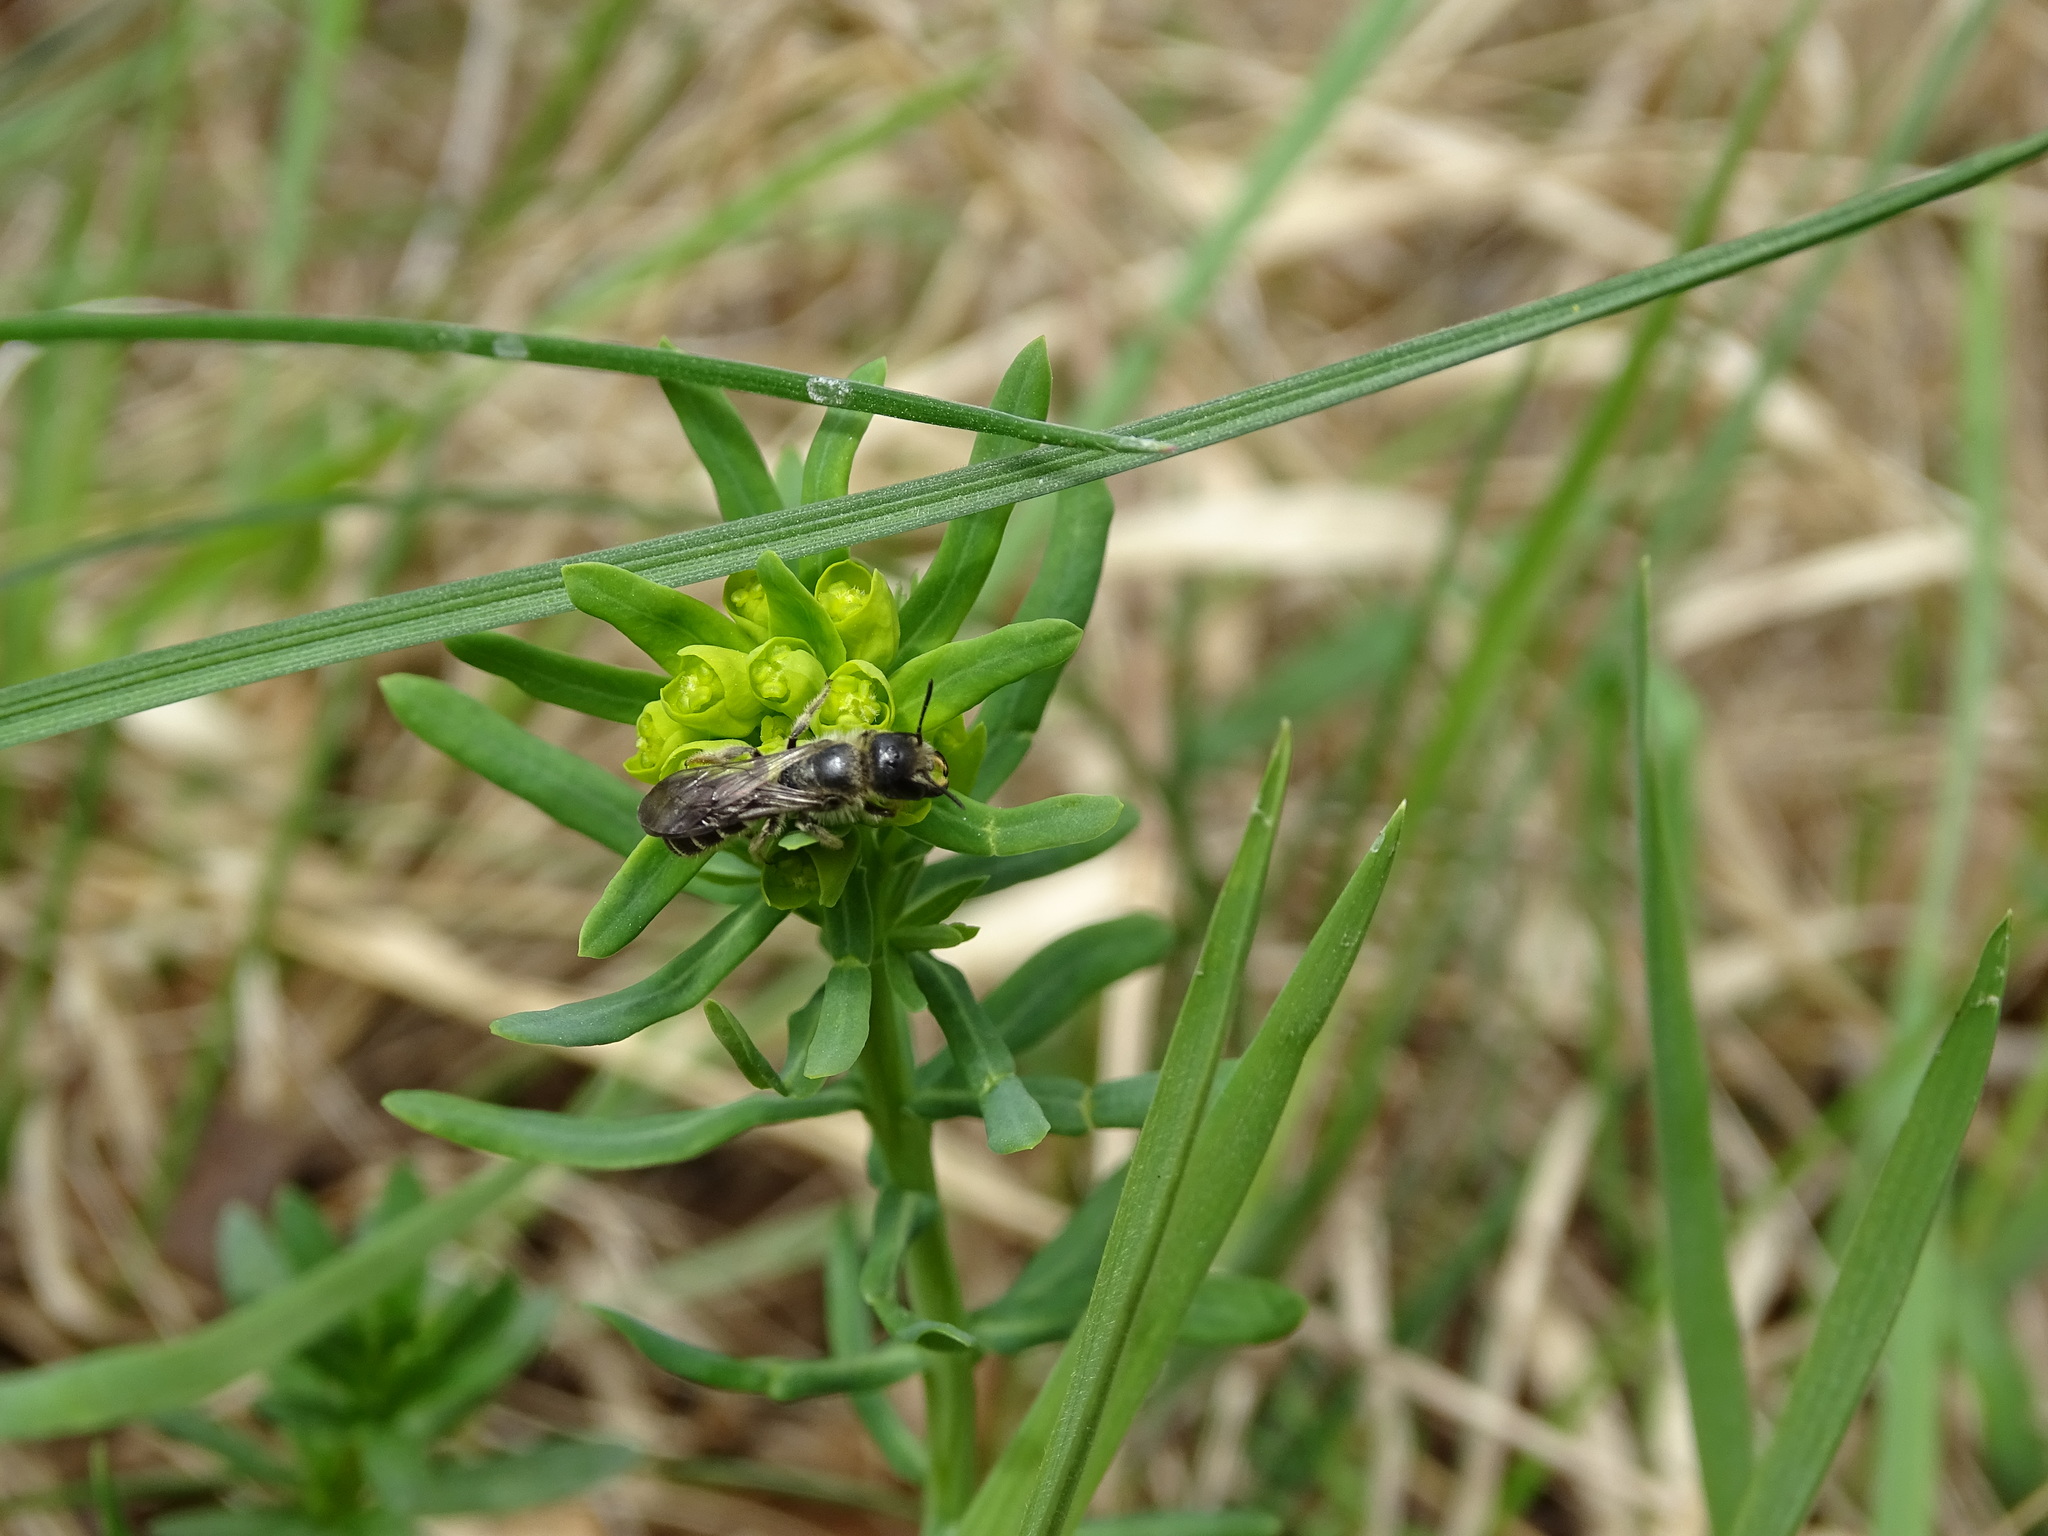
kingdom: Animalia
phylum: Arthropoda
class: Insecta
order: Hymenoptera
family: Megachilidae
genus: Chelostoma
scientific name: Chelostoma florisomne
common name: Sleepy carpenter bee
